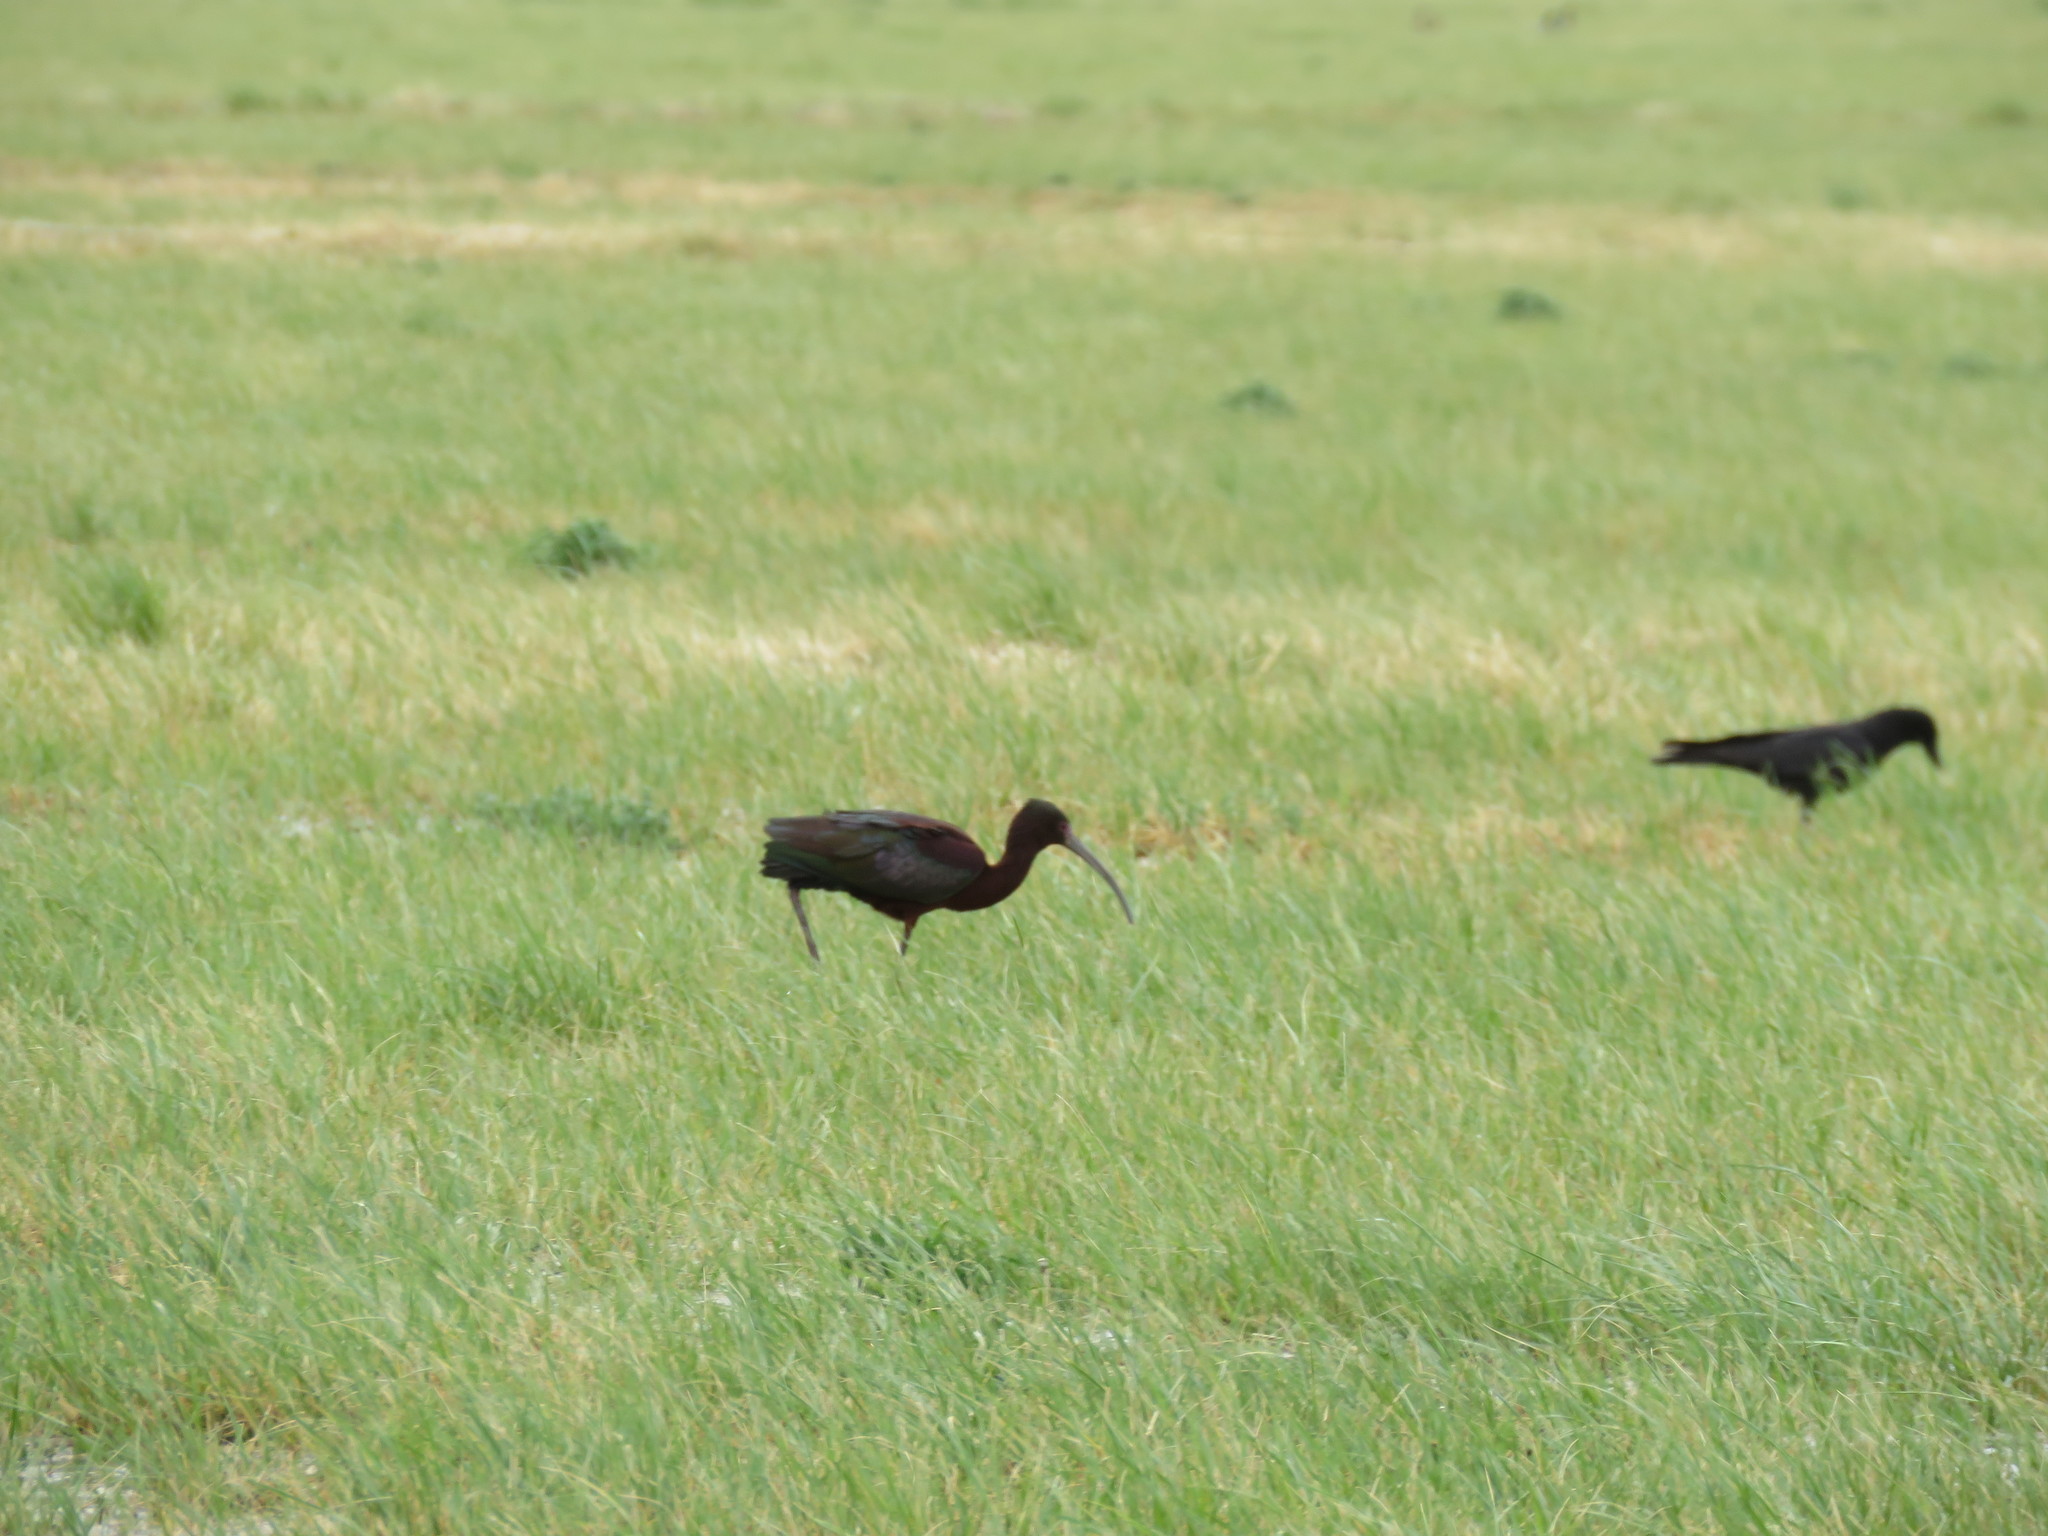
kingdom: Animalia
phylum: Chordata
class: Aves
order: Pelecaniformes
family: Threskiornithidae
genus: Plegadis
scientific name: Plegadis chihi
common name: White-faced ibis
